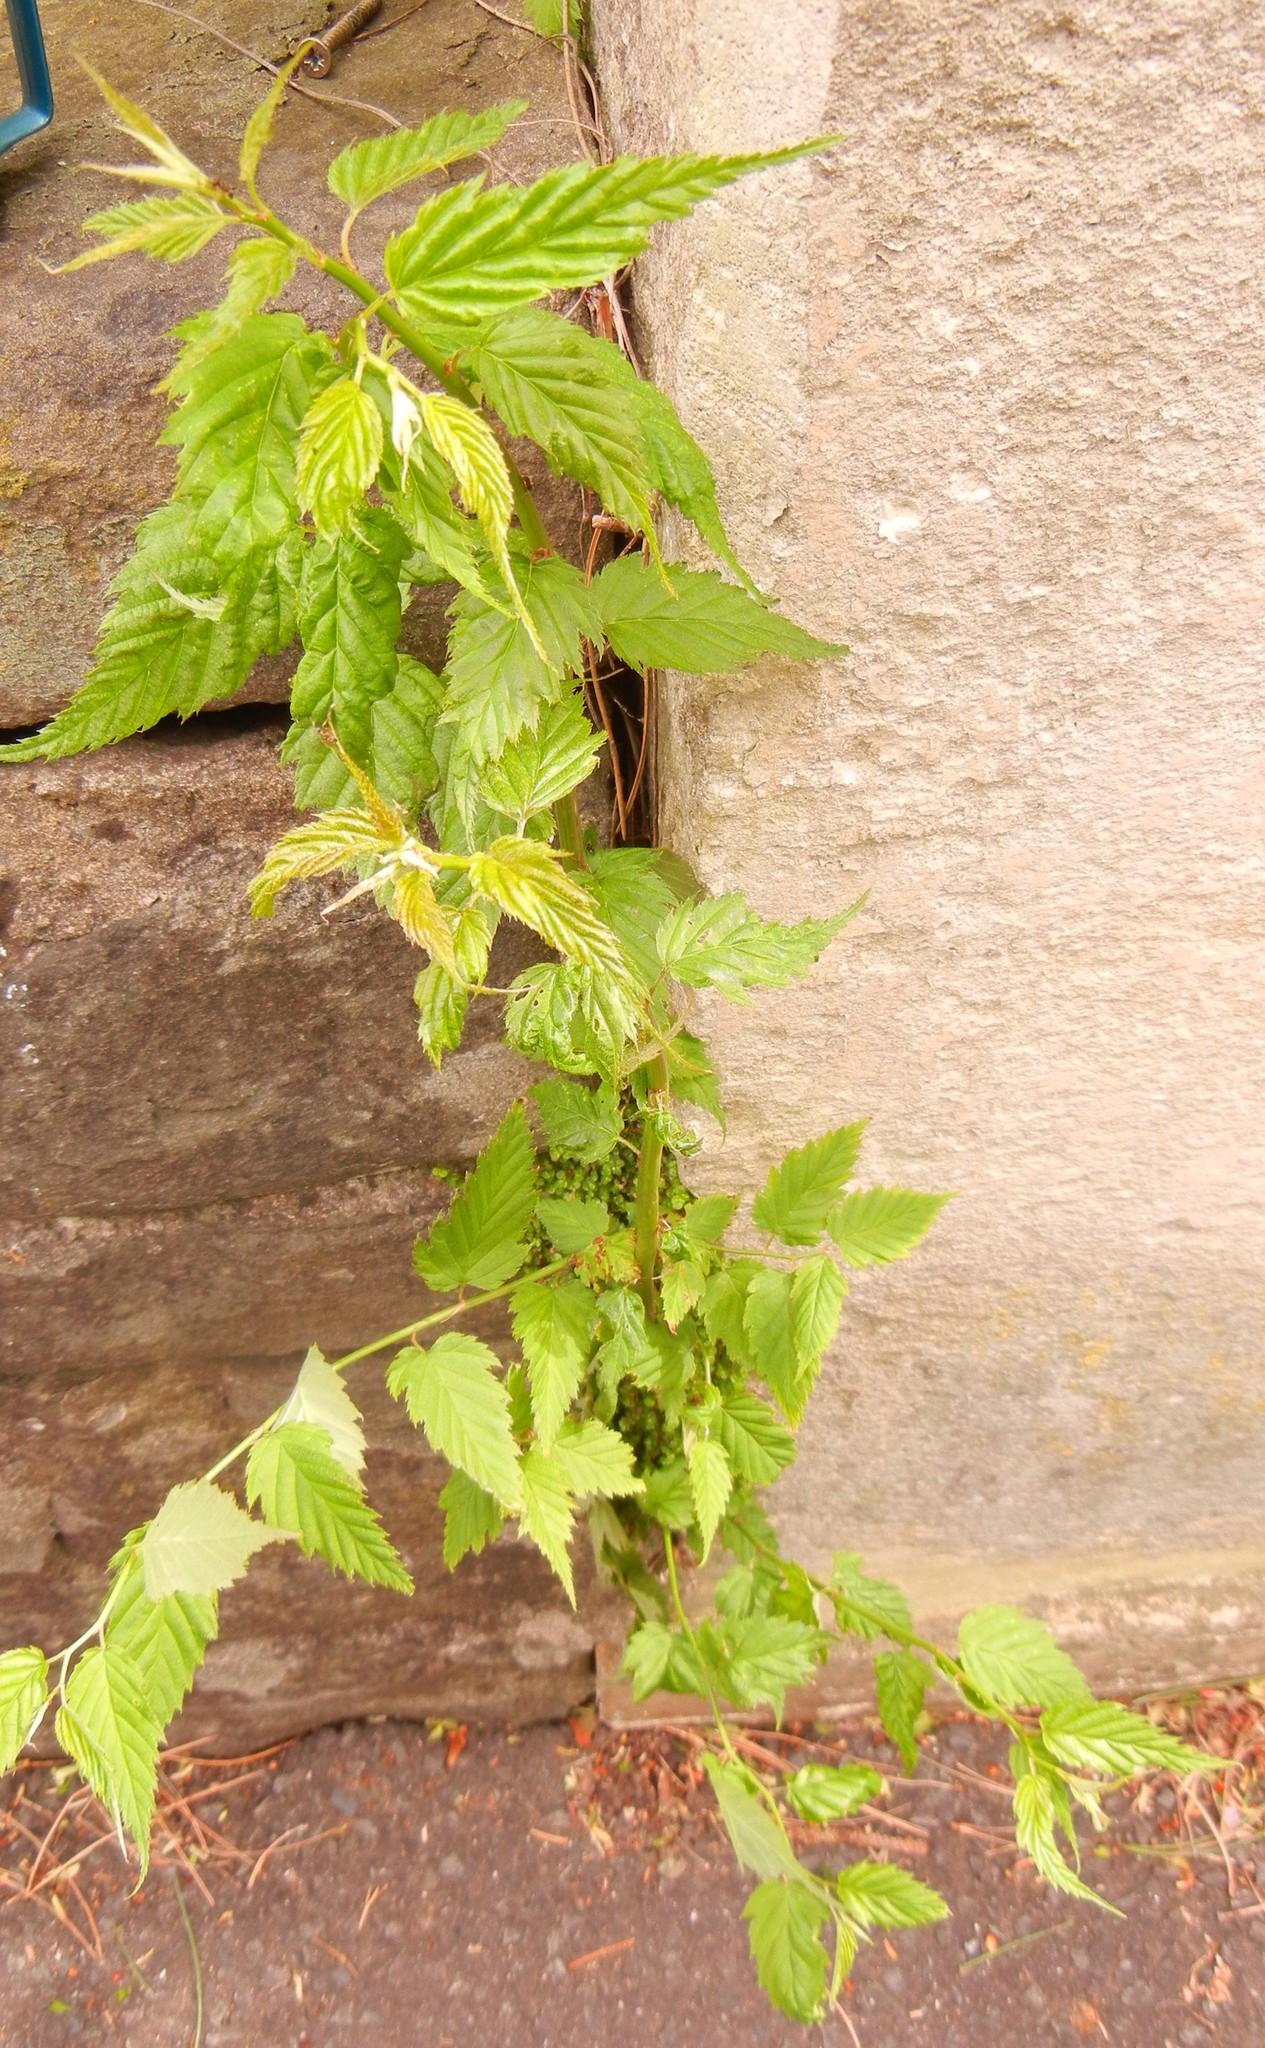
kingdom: Plantae
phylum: Tracheophyta
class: Magnoliopsida
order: Rosales
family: Rosaceae
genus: Kerria
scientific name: Kerria japonica
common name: Japanese kerria
